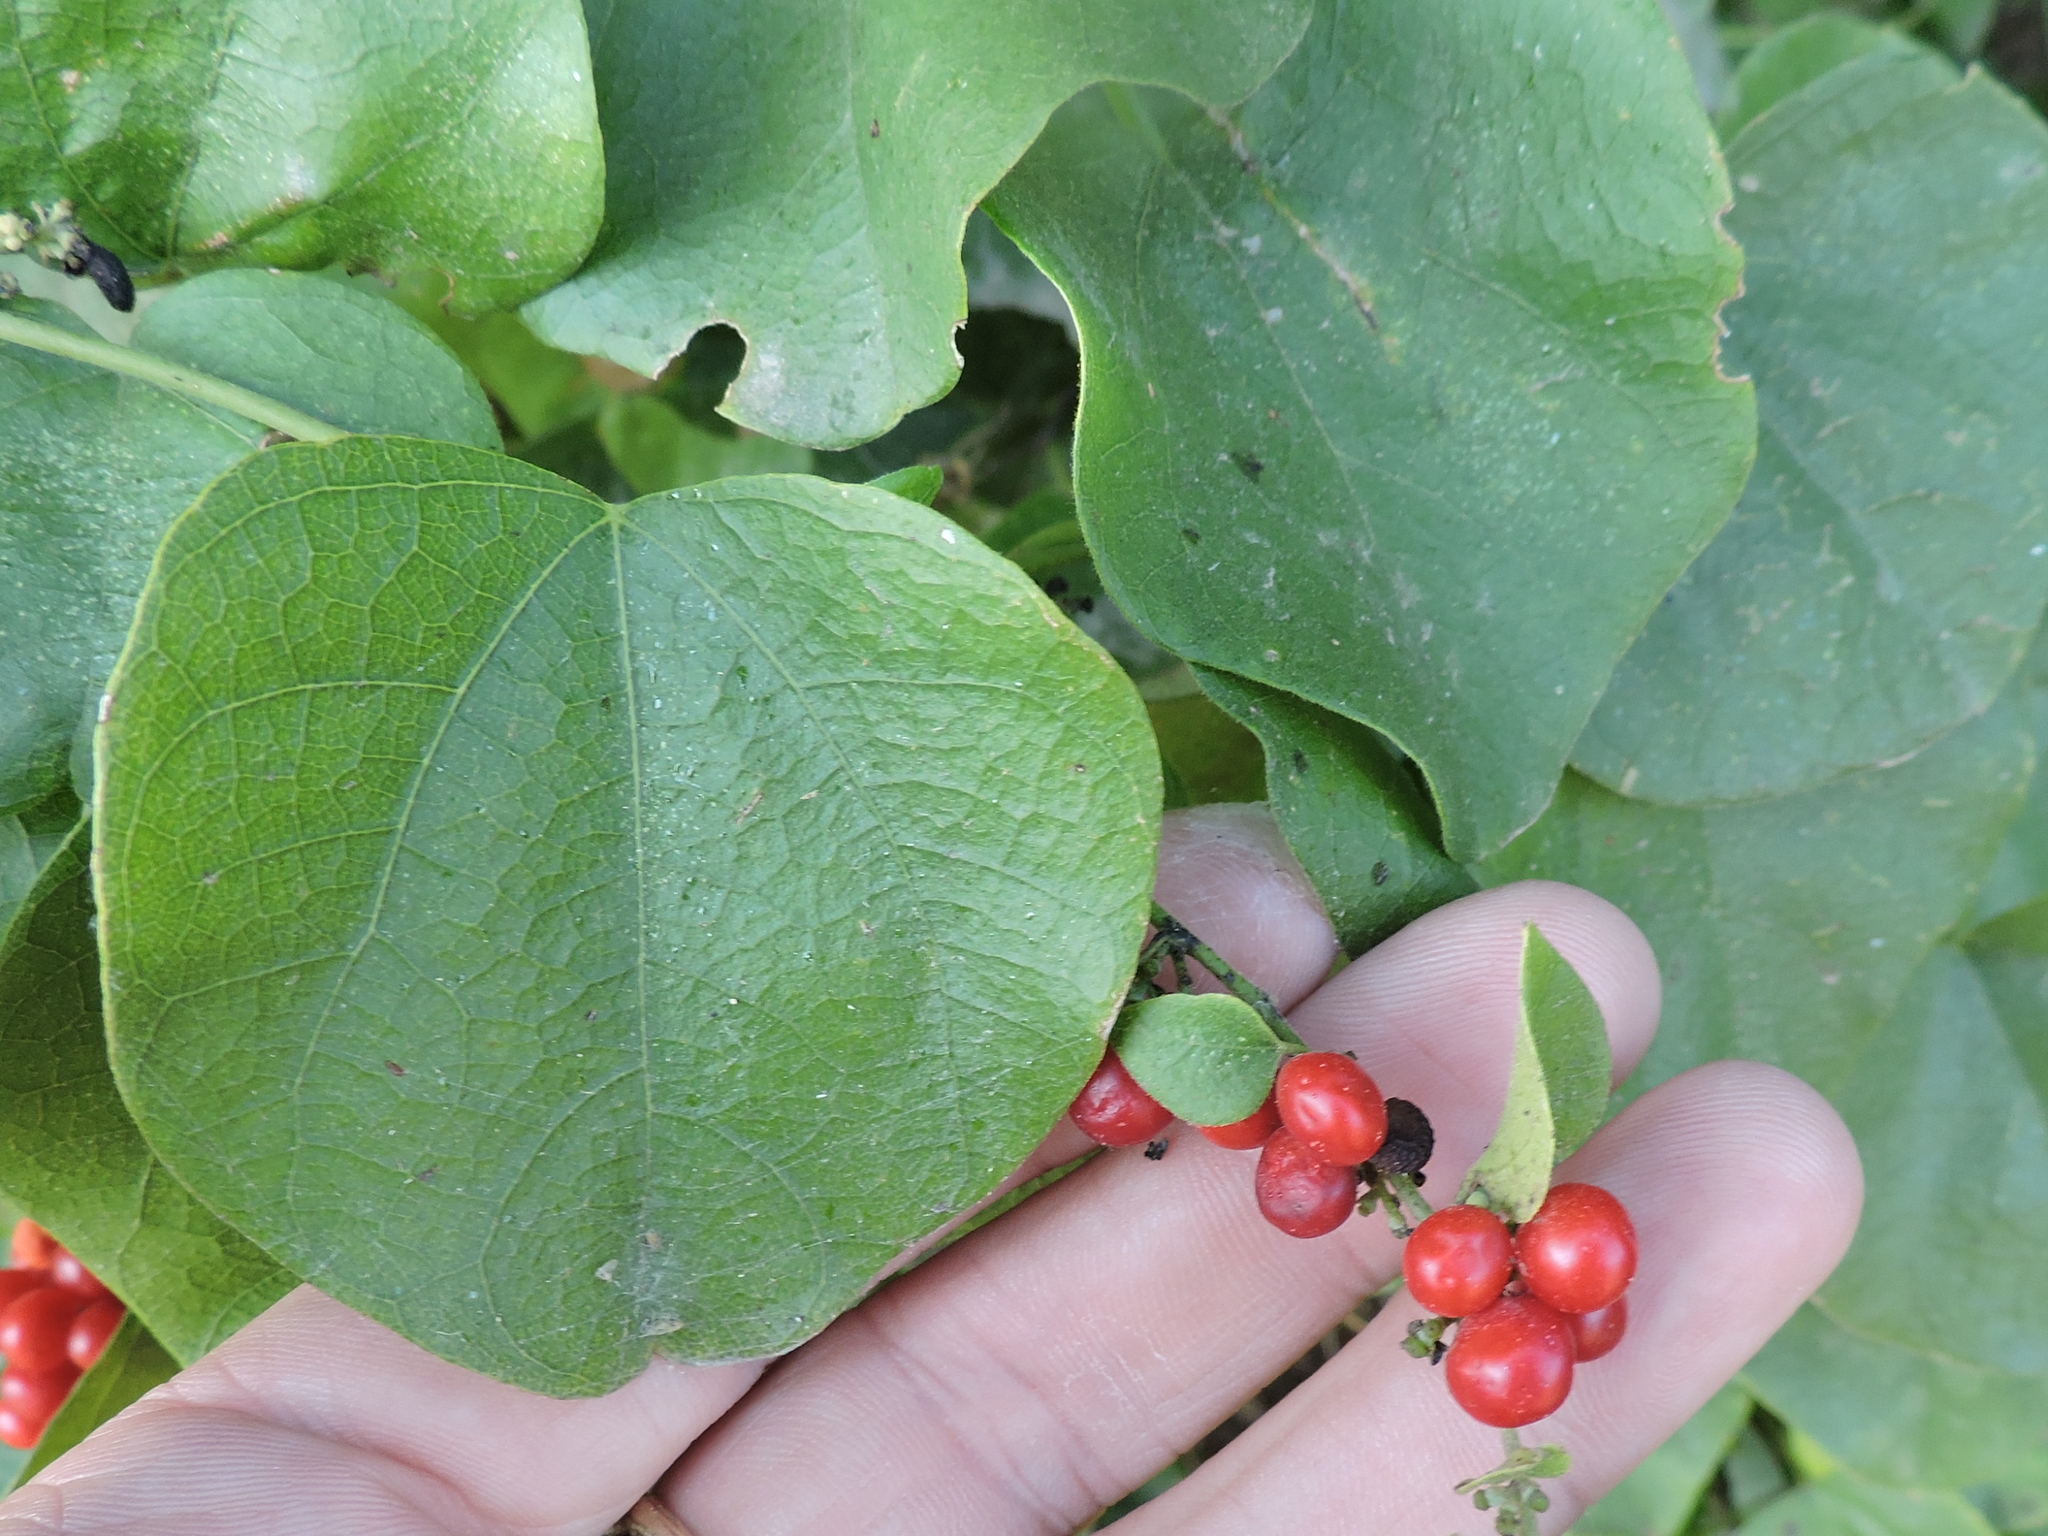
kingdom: Plantae
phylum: Tracheophyta
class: Magnoliopsida
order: Ranunculales
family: Menispermaceae
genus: Cocculus
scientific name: Cocculus carolinus
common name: Carolina moonseed
